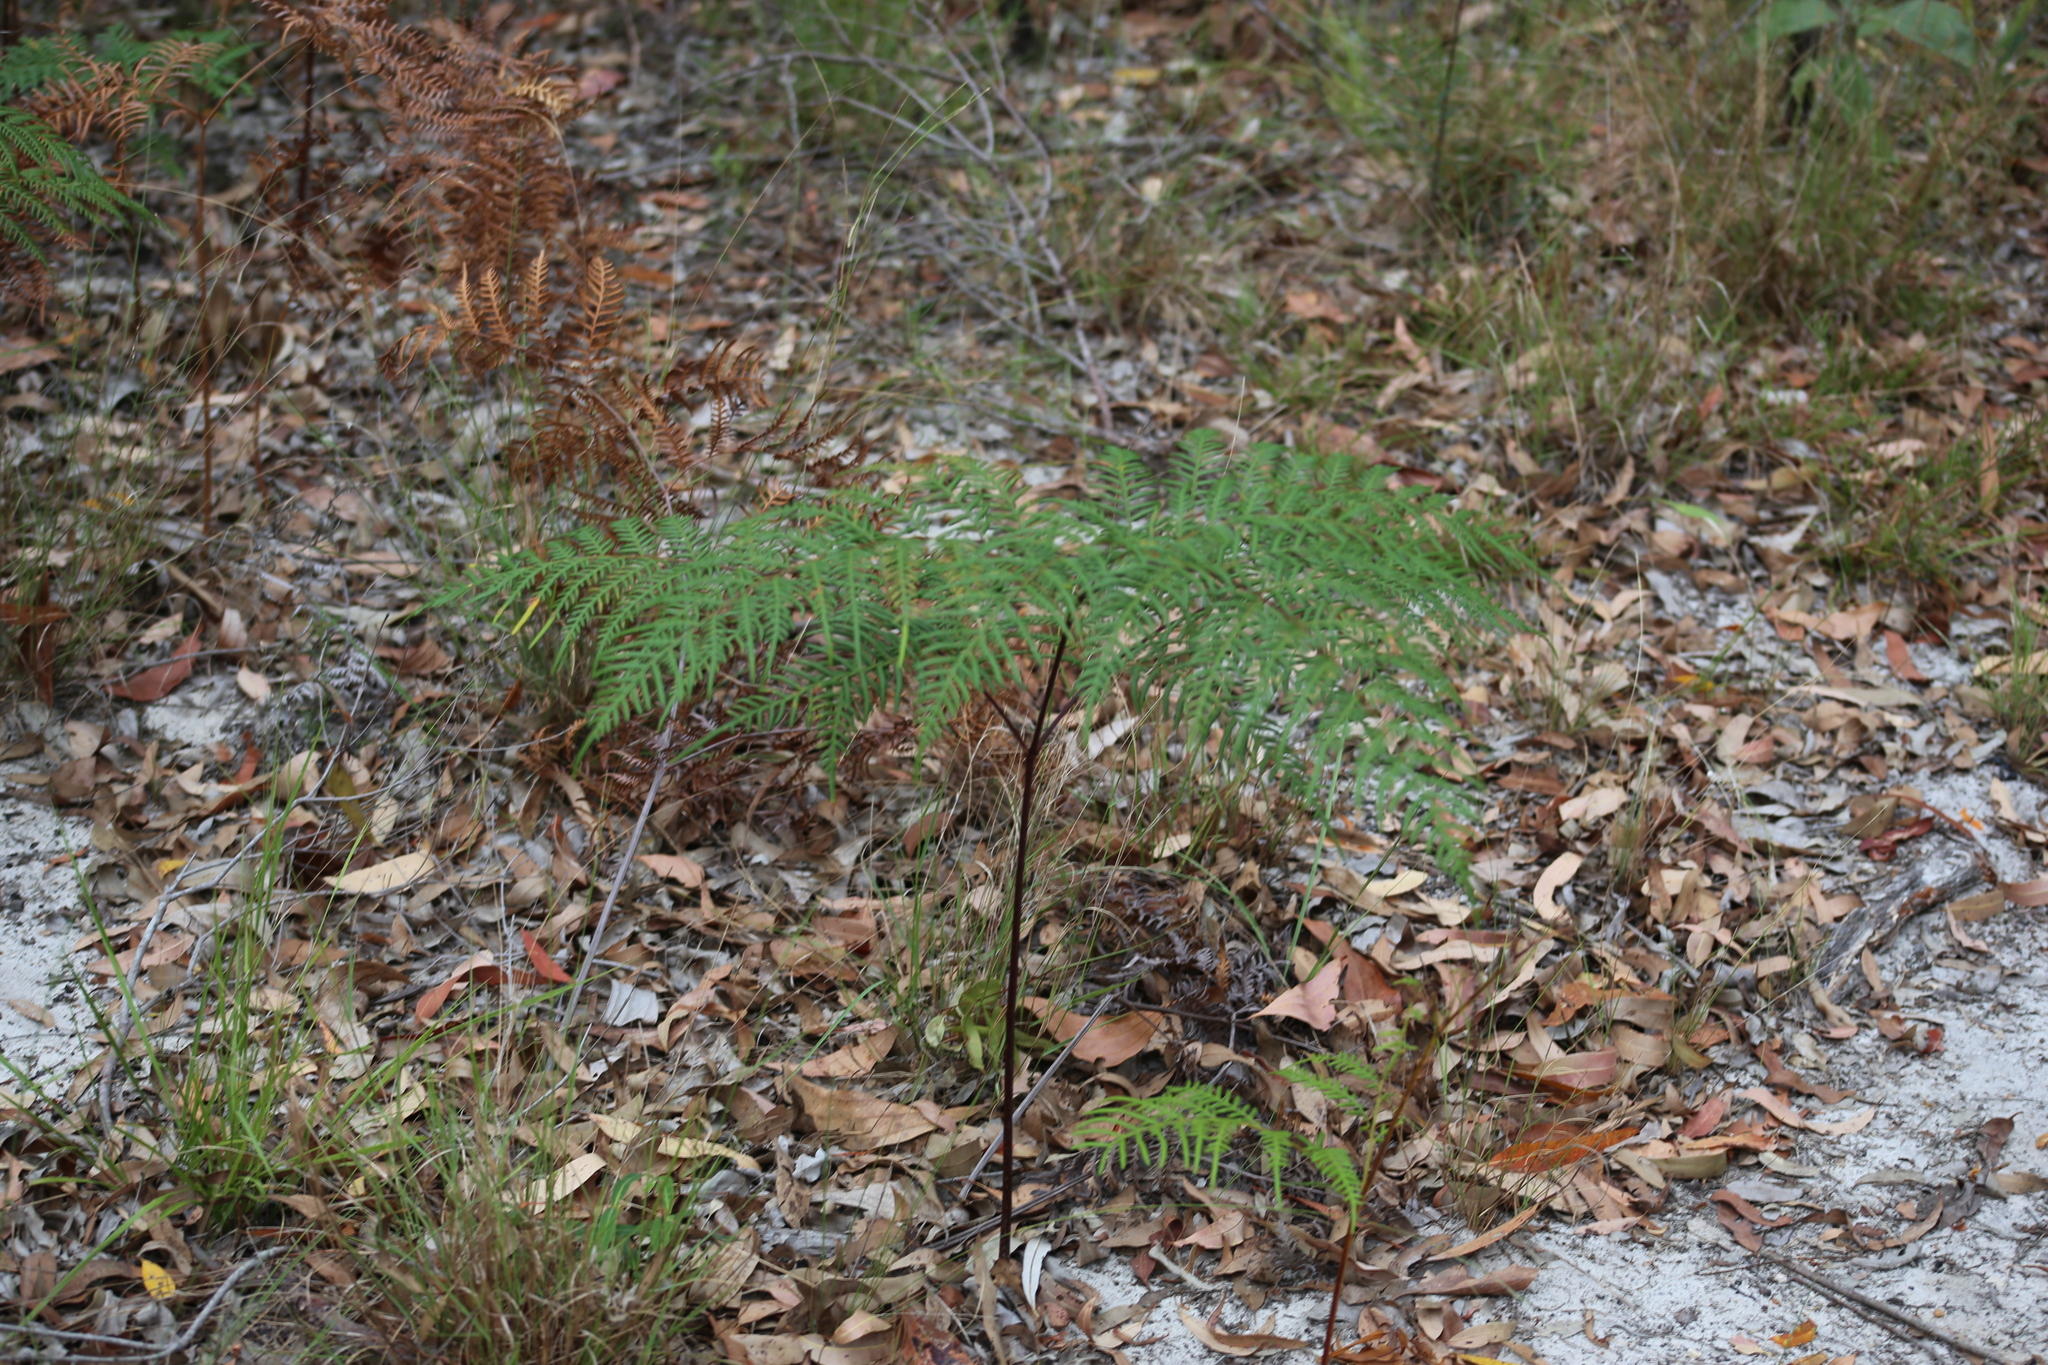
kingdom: Plantae
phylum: Tracheophyta
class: Polypodiopsida
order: Polypodiales
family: Dennstaedtiaceae
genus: Pteridium
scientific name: Pteridium esculentum
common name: Bracken fern
